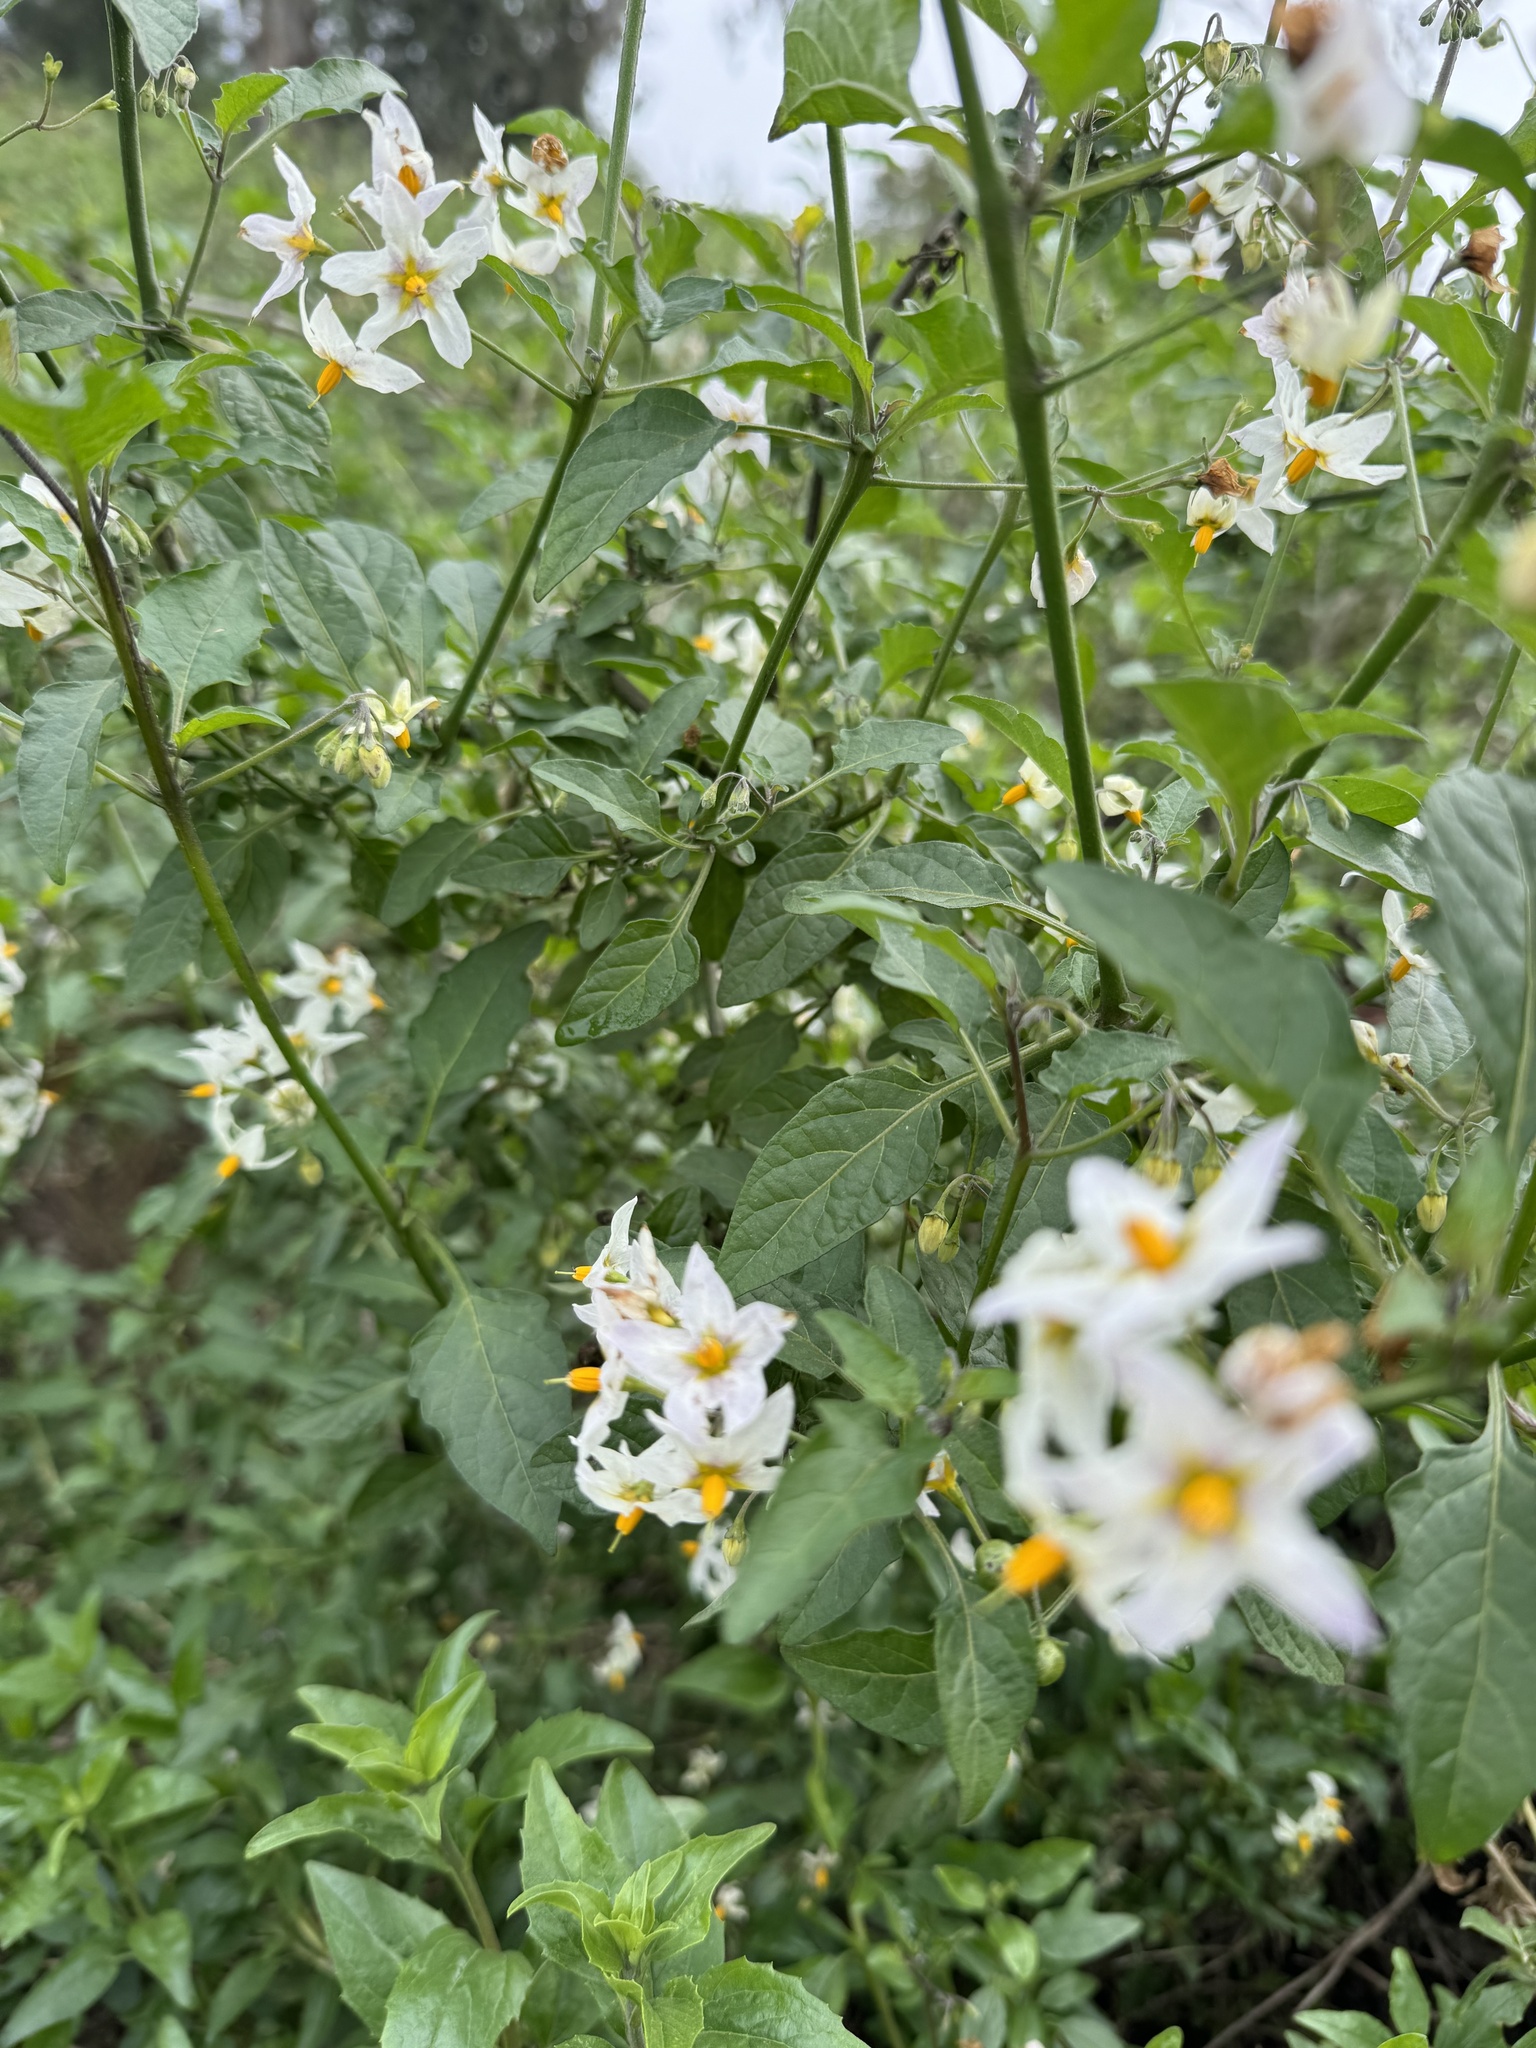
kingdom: Plantae
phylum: Tracheophyta
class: Magnoliopsida
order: Solanales
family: Solanaceae
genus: Solanum
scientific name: Solanum douglasii
